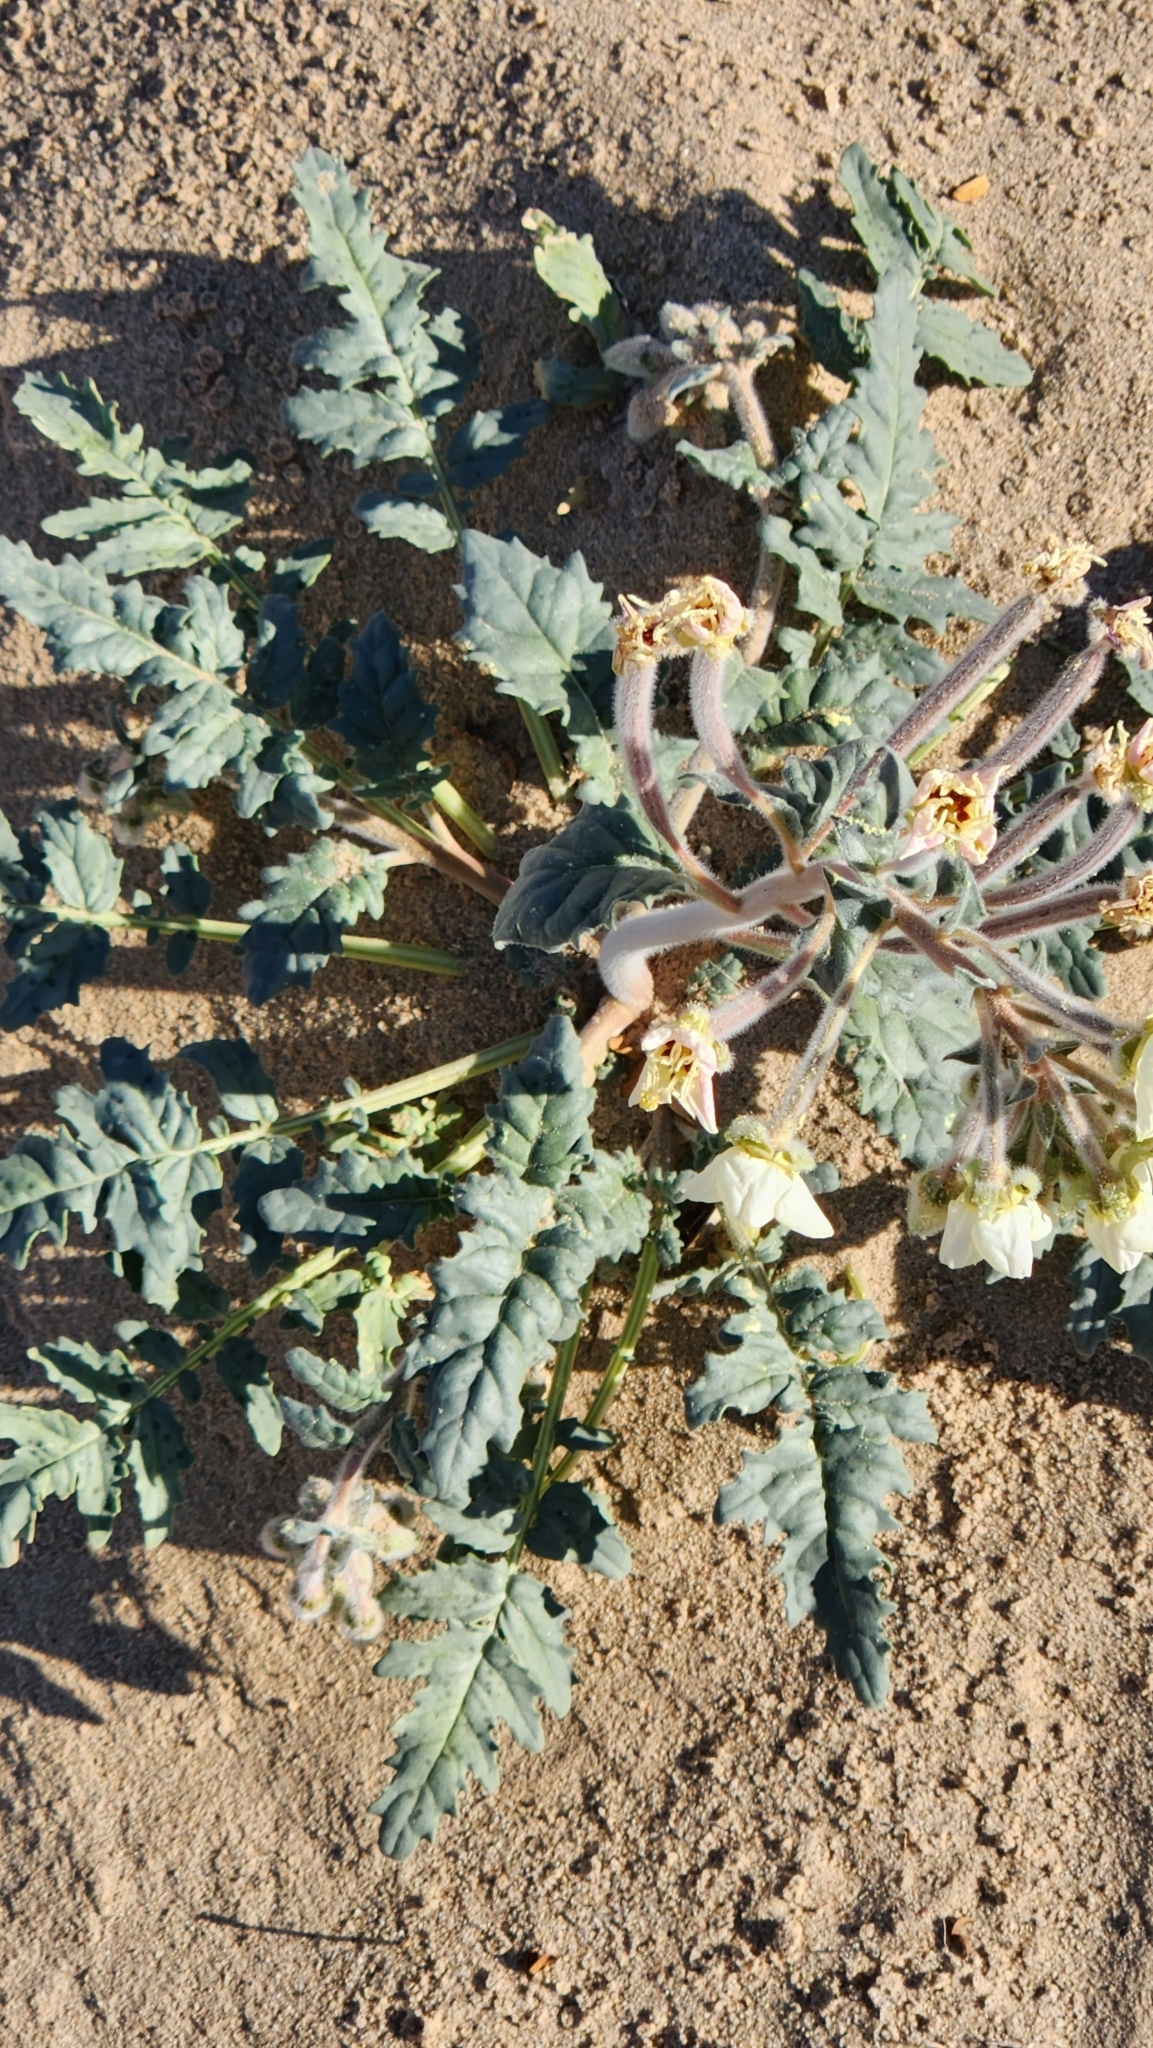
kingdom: Plantae
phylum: Tracheophyta
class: Magnoliopsida
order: Myrtales
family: Onagraceae
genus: Chylismia
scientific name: Chylismia claviformis
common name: Browneyes
